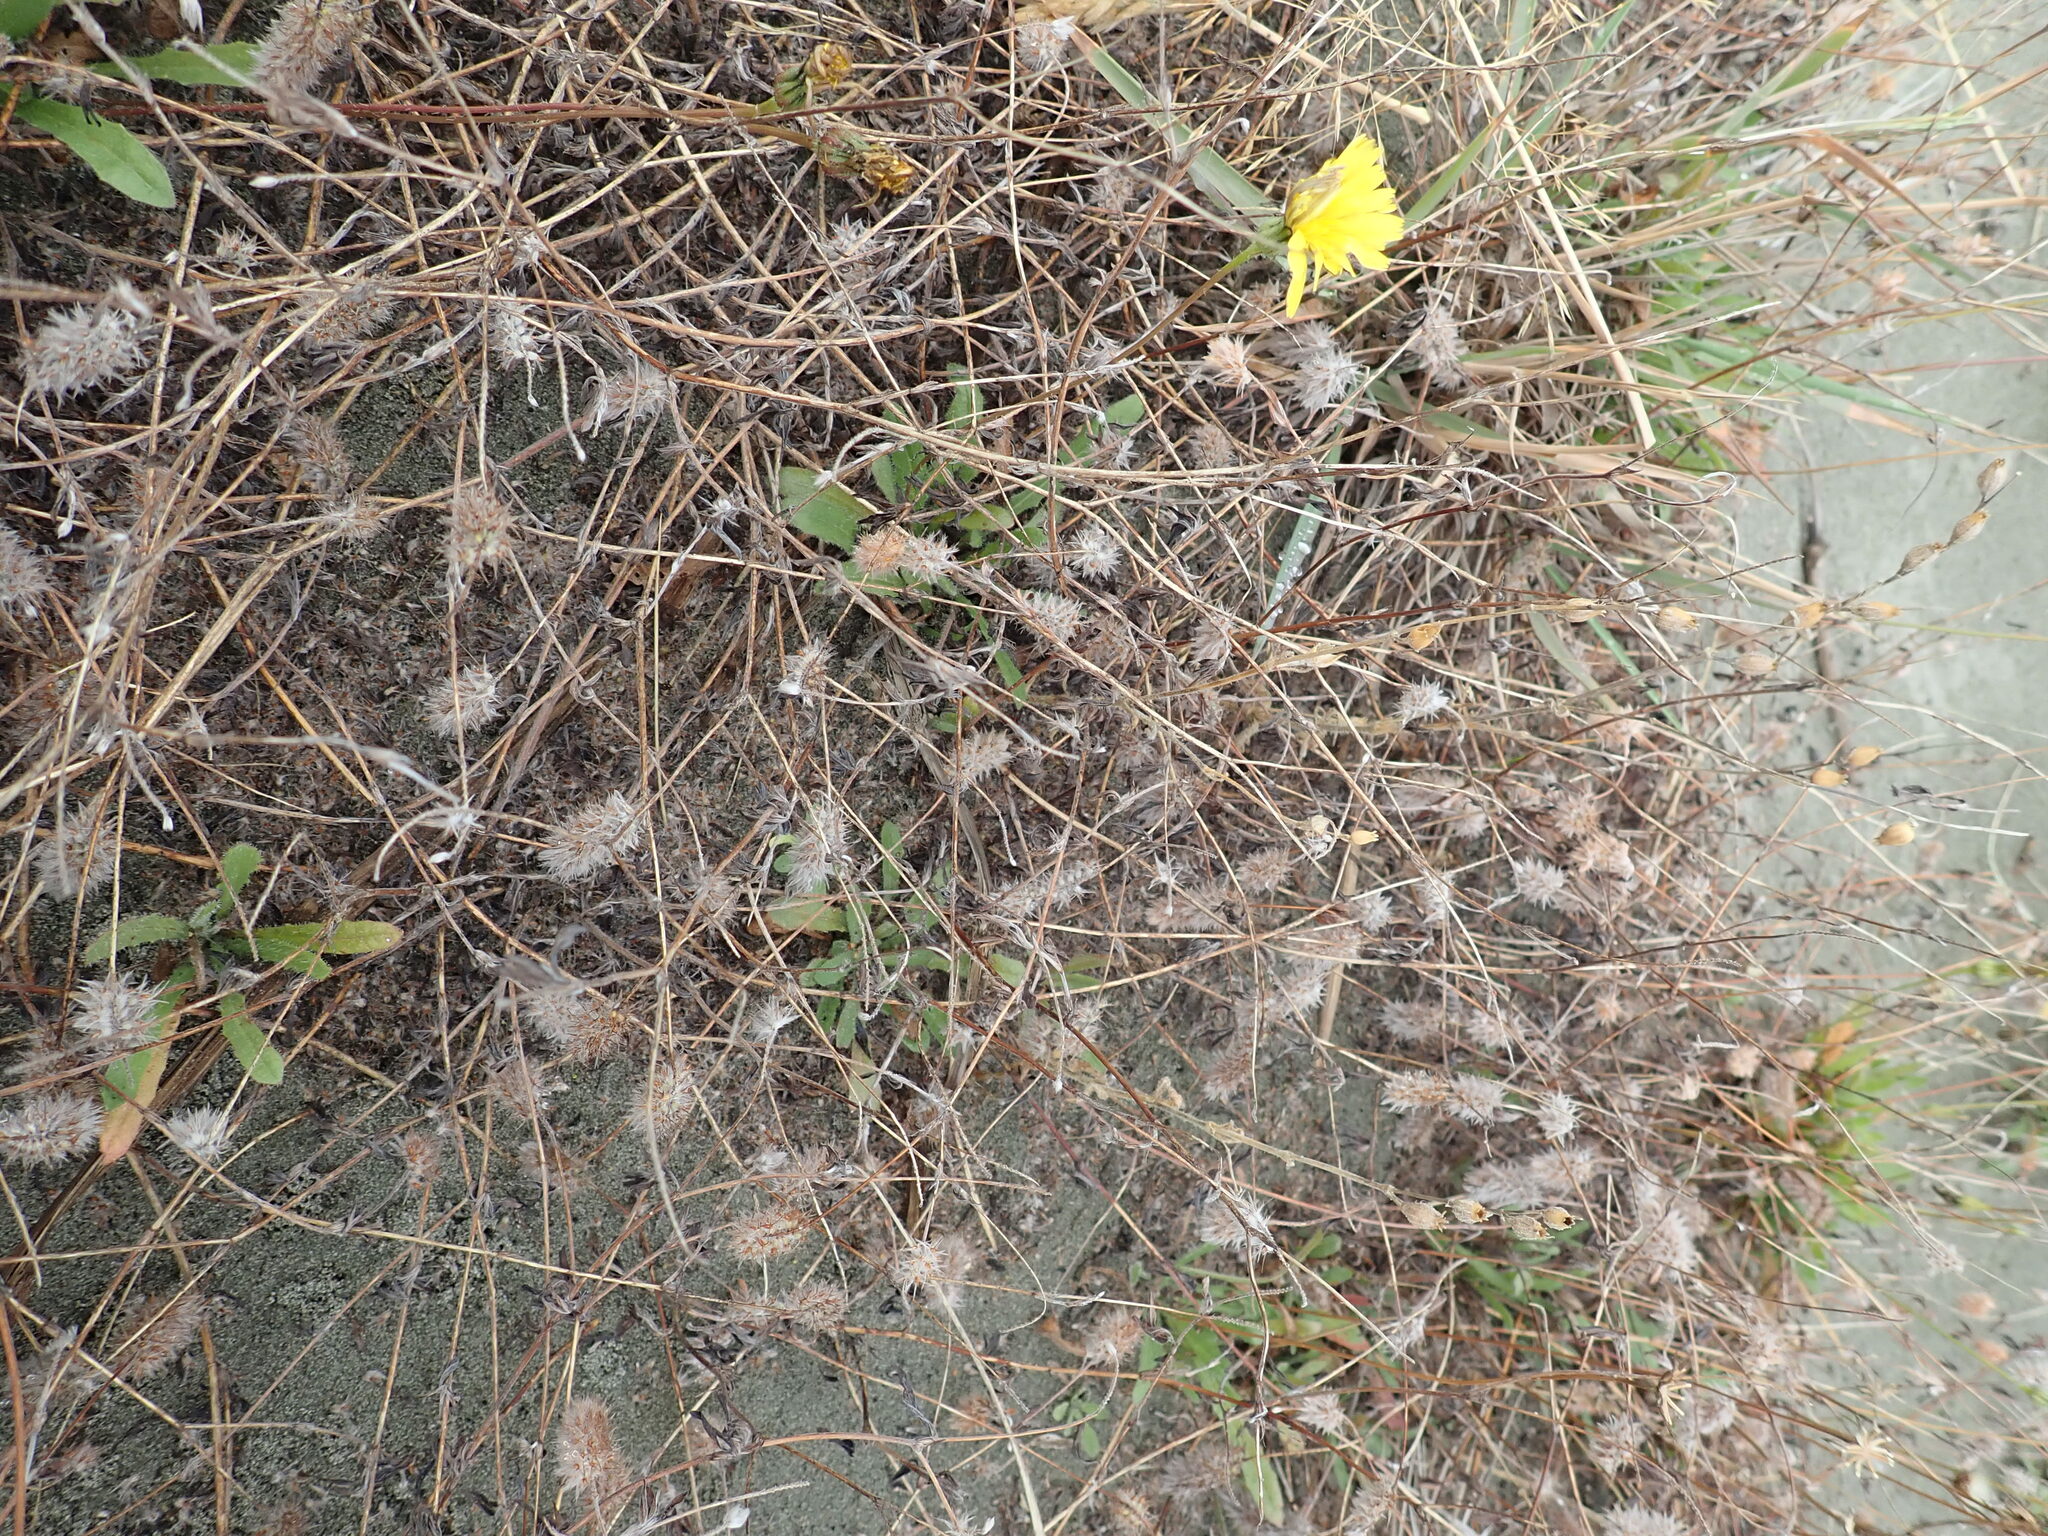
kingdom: Plantae
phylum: Tracheophyta
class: Magnoliopsida
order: Fabales
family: Fabaceae
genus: Trifolium
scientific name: Trifolium arvense
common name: Hare's-foot clover
